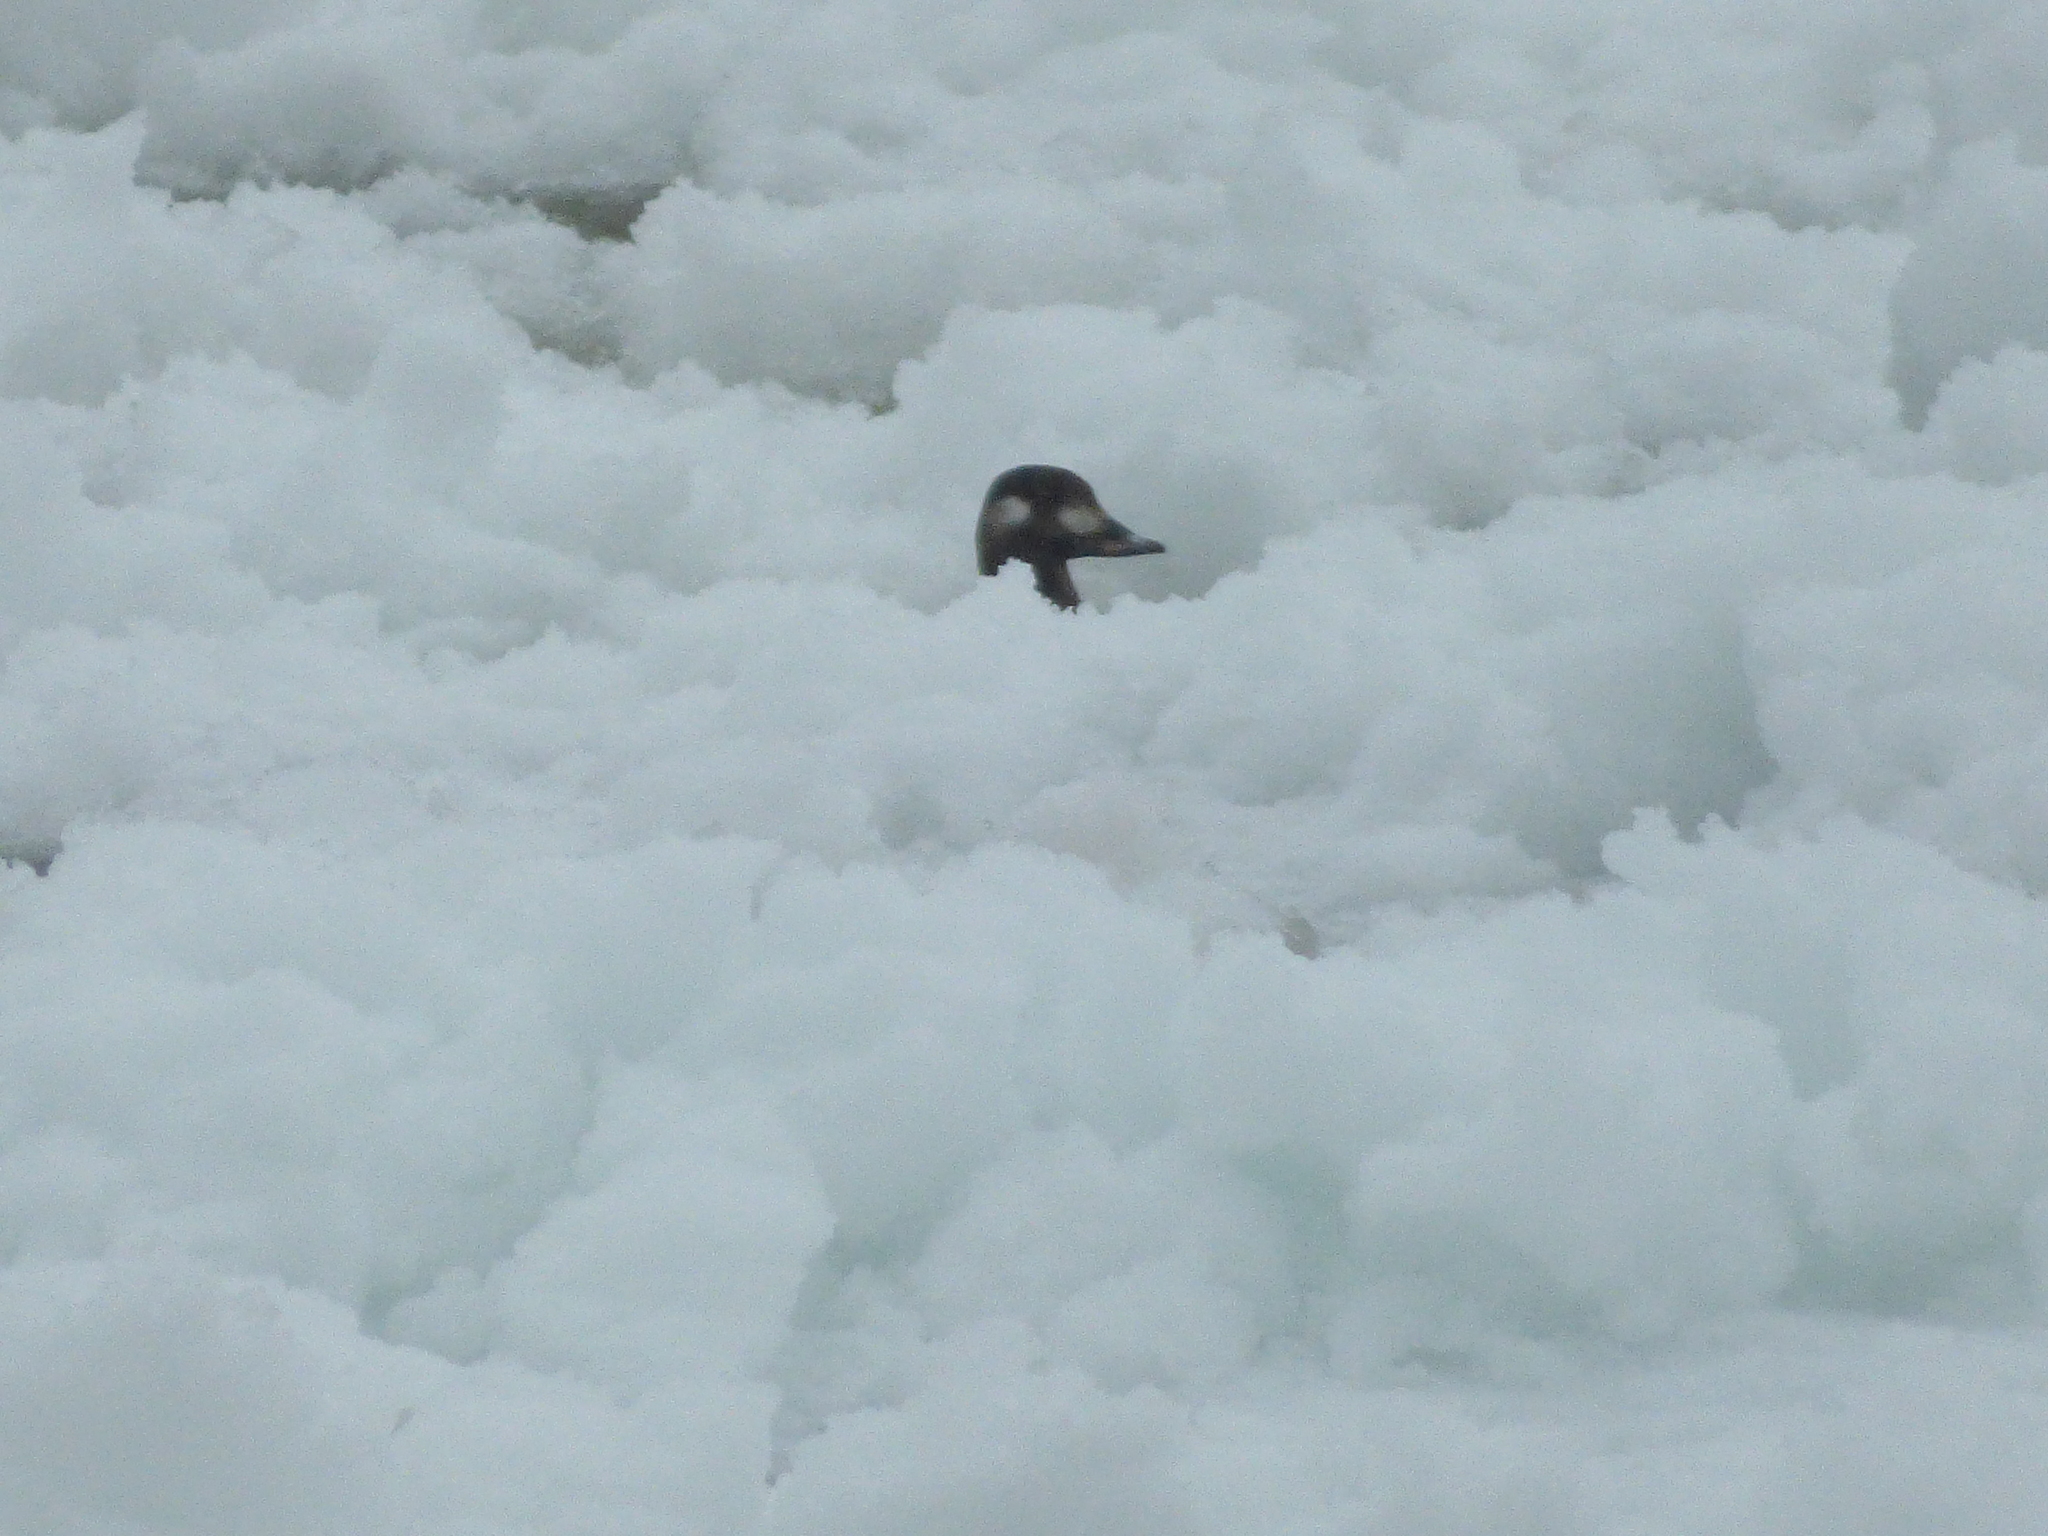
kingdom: Animalia
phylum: Chordata
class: Aves
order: Anseriformes
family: Anatidae
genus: Melanitta
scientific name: Melanitta deglandi
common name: White-winged scoter
